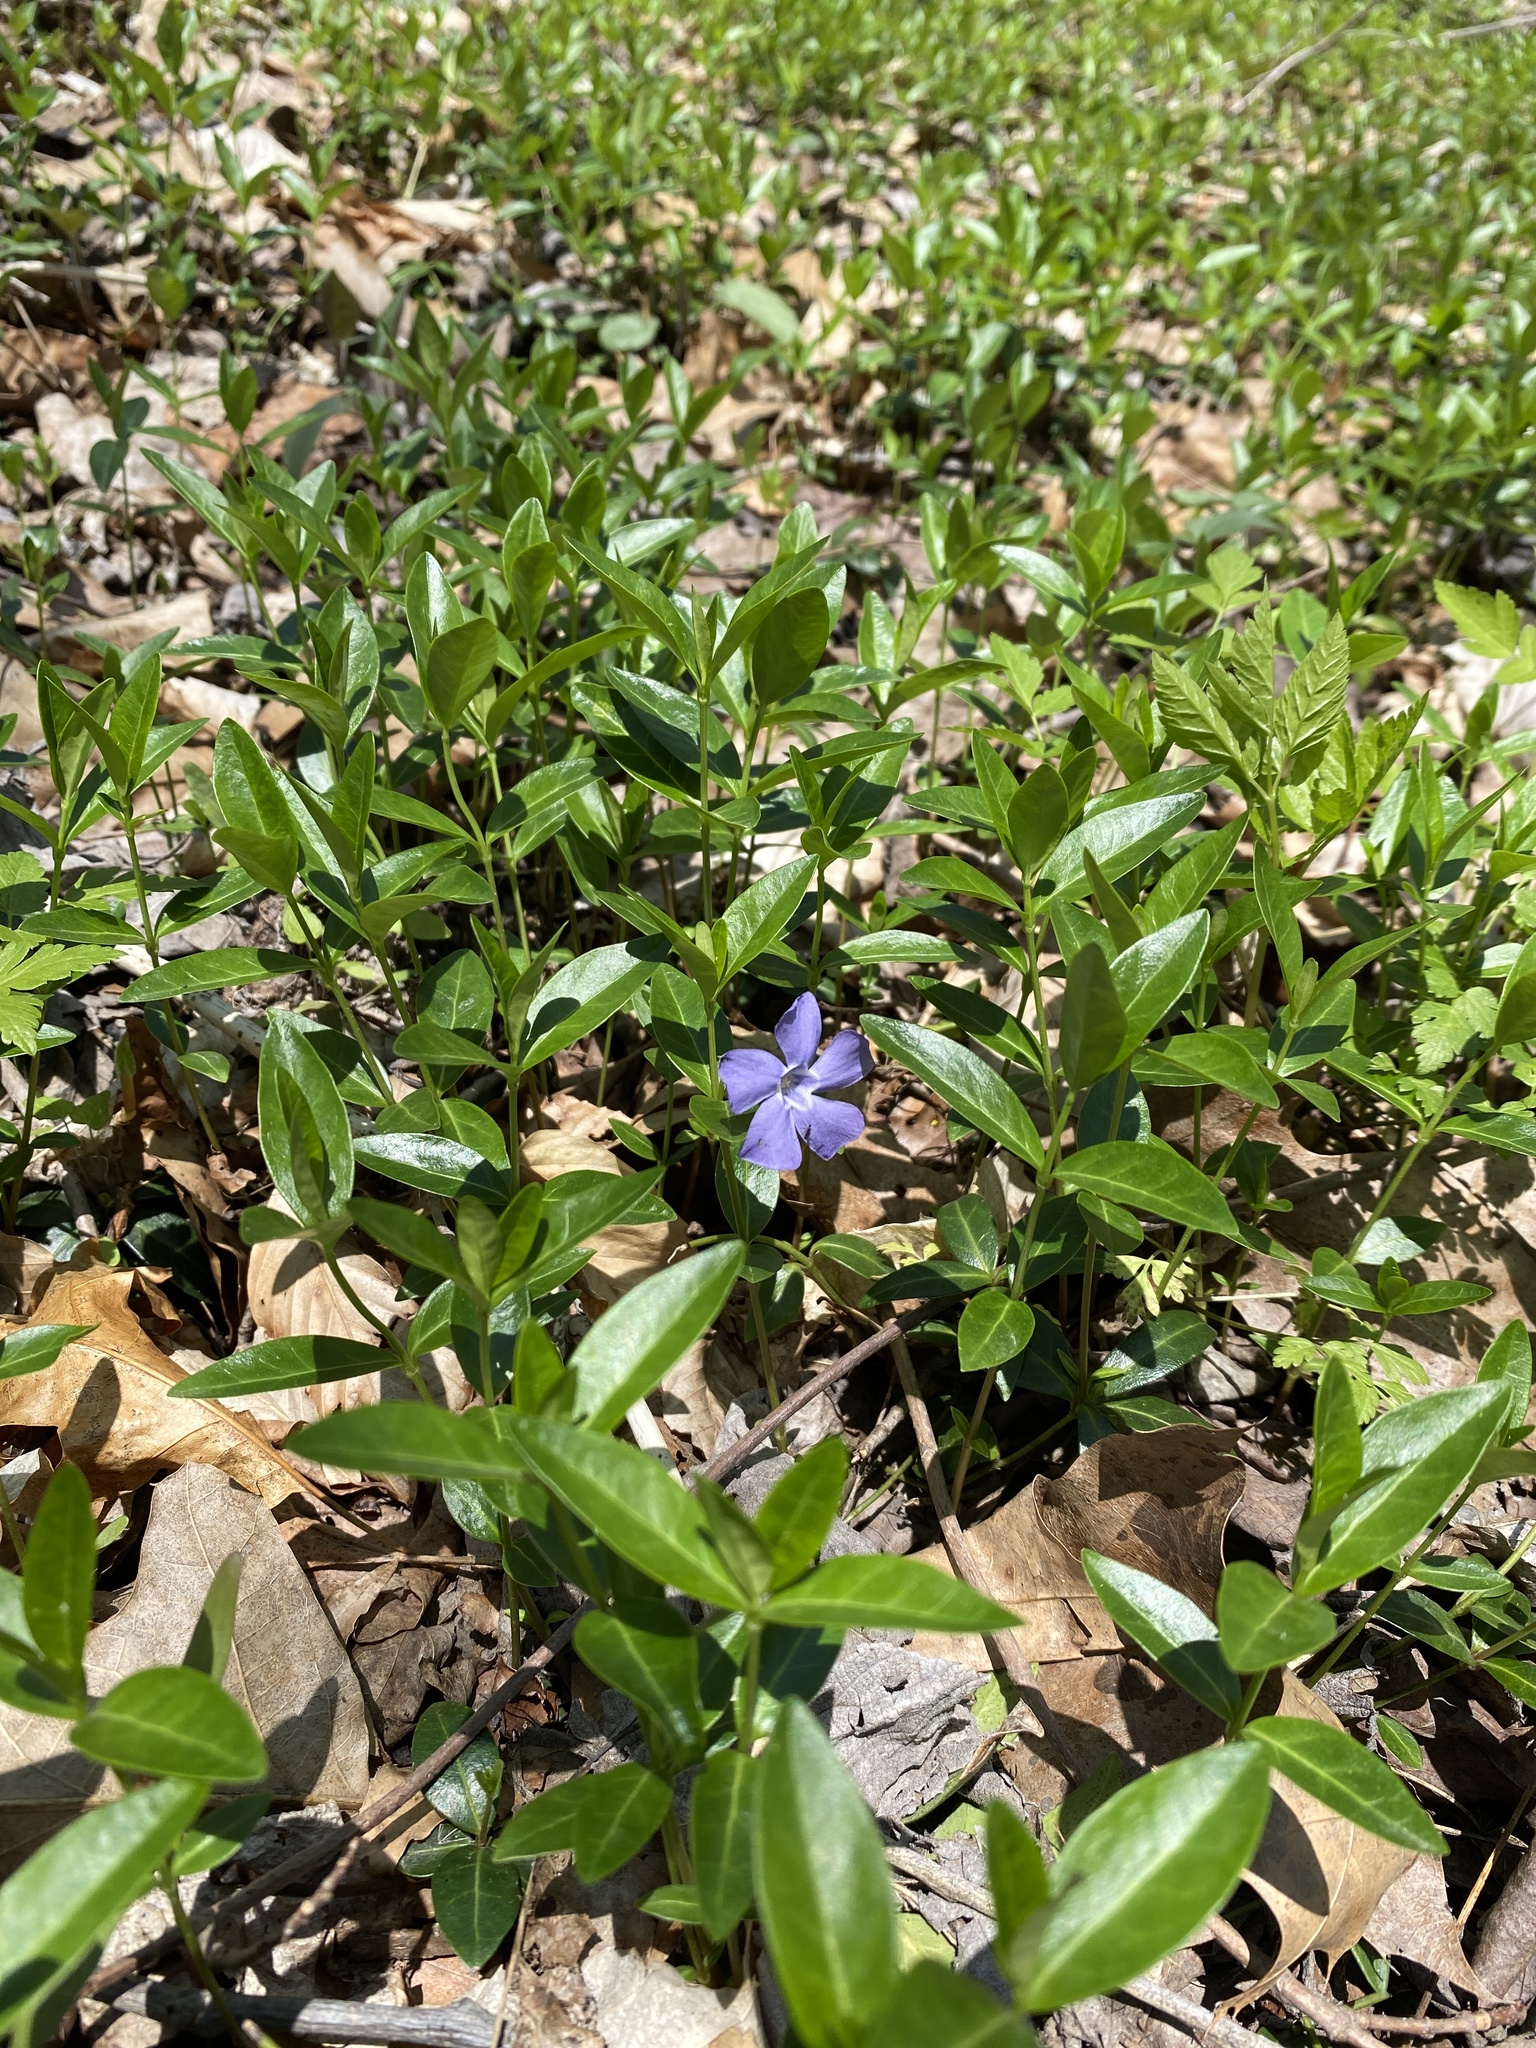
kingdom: Plantae
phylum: Tracheophyta
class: Magnoliopsida
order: Gentianales
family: Apocynaceae
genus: Vinca
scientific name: Vinca minor
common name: Lesser periwinkle
